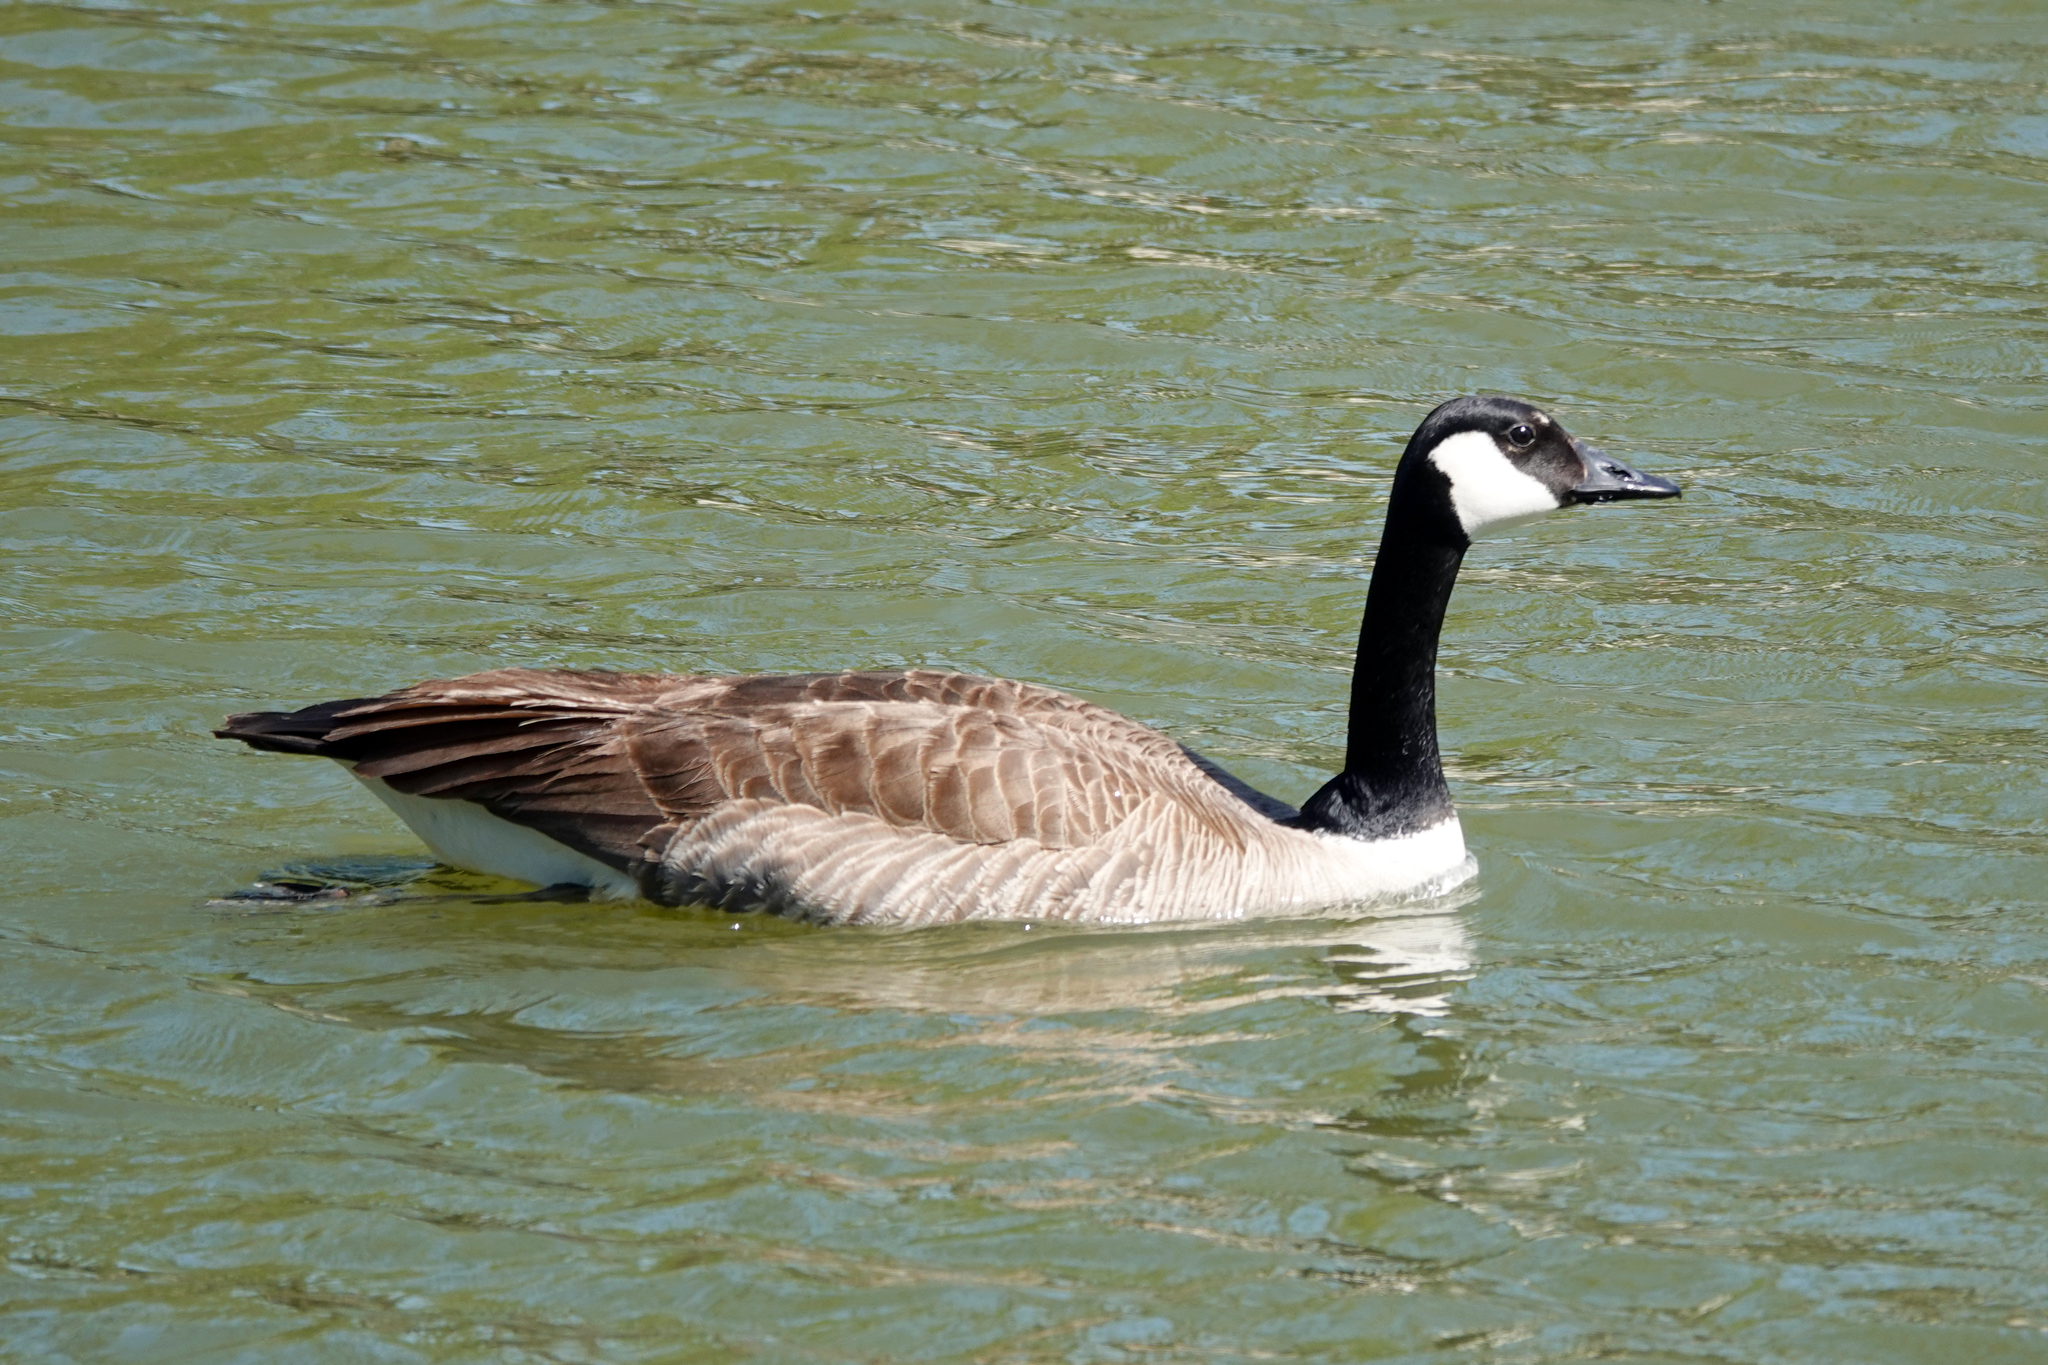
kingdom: Animalia
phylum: Chordata
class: Aves
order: Anseriformes
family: Anatidae
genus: Branta
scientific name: Branta canadensis
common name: Canada goose
